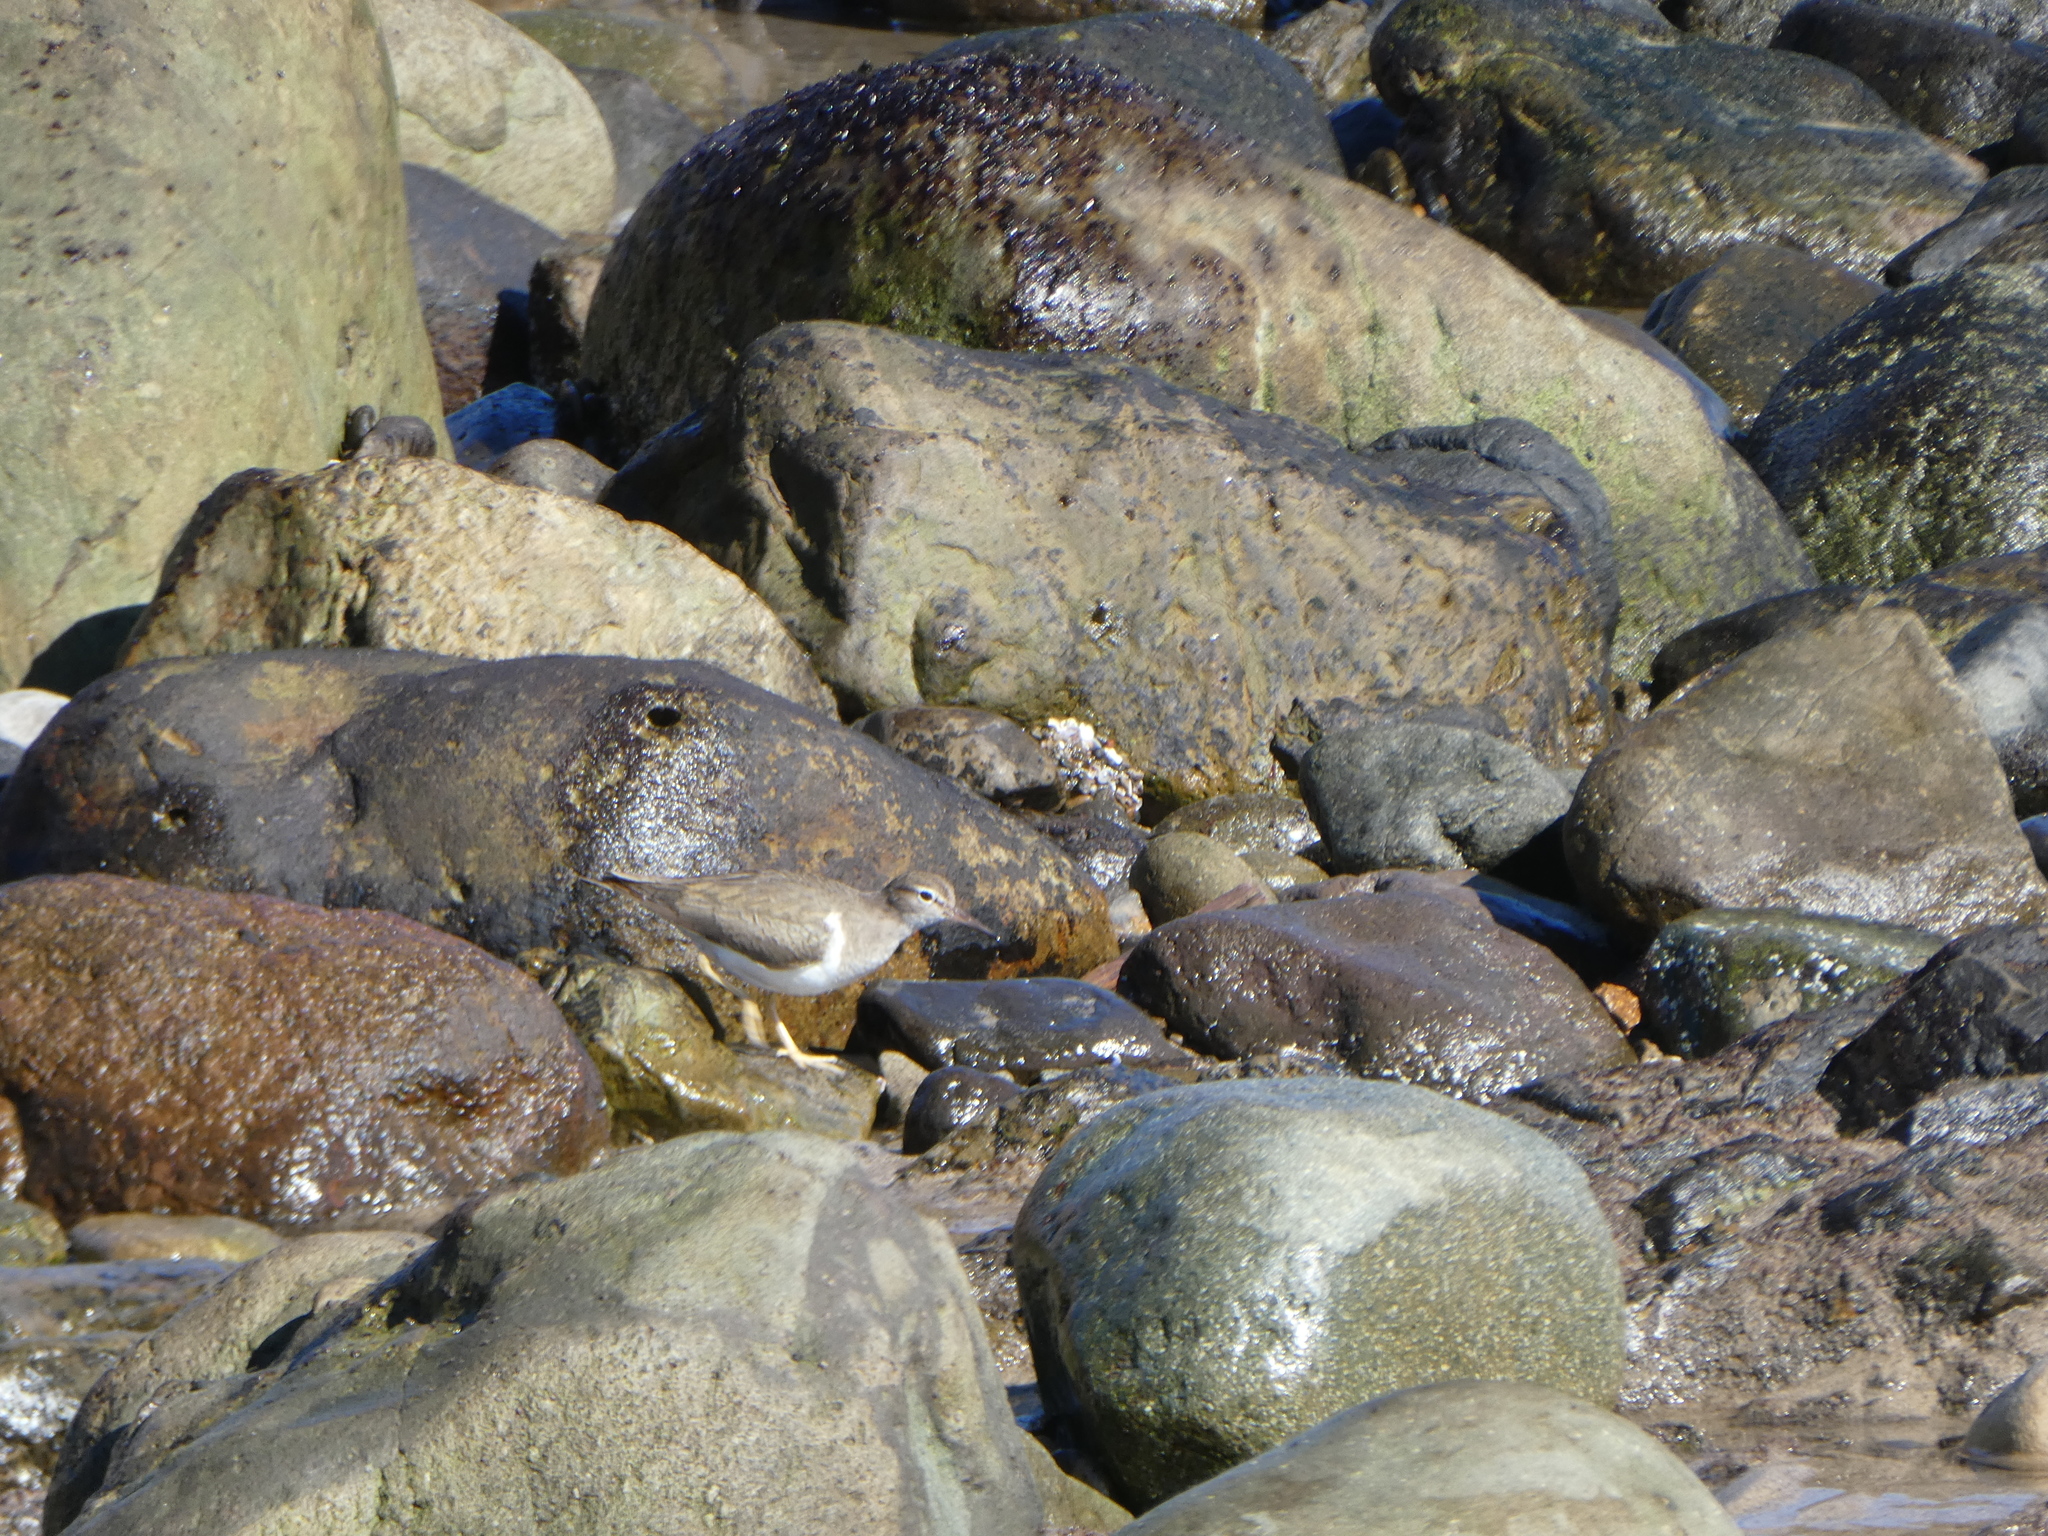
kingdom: Animalia
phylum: Chordata
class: Aves
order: Charadriiformes
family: Scolopacidae
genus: Actitis
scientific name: Actitis macularius
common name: Spotted sandpiper
